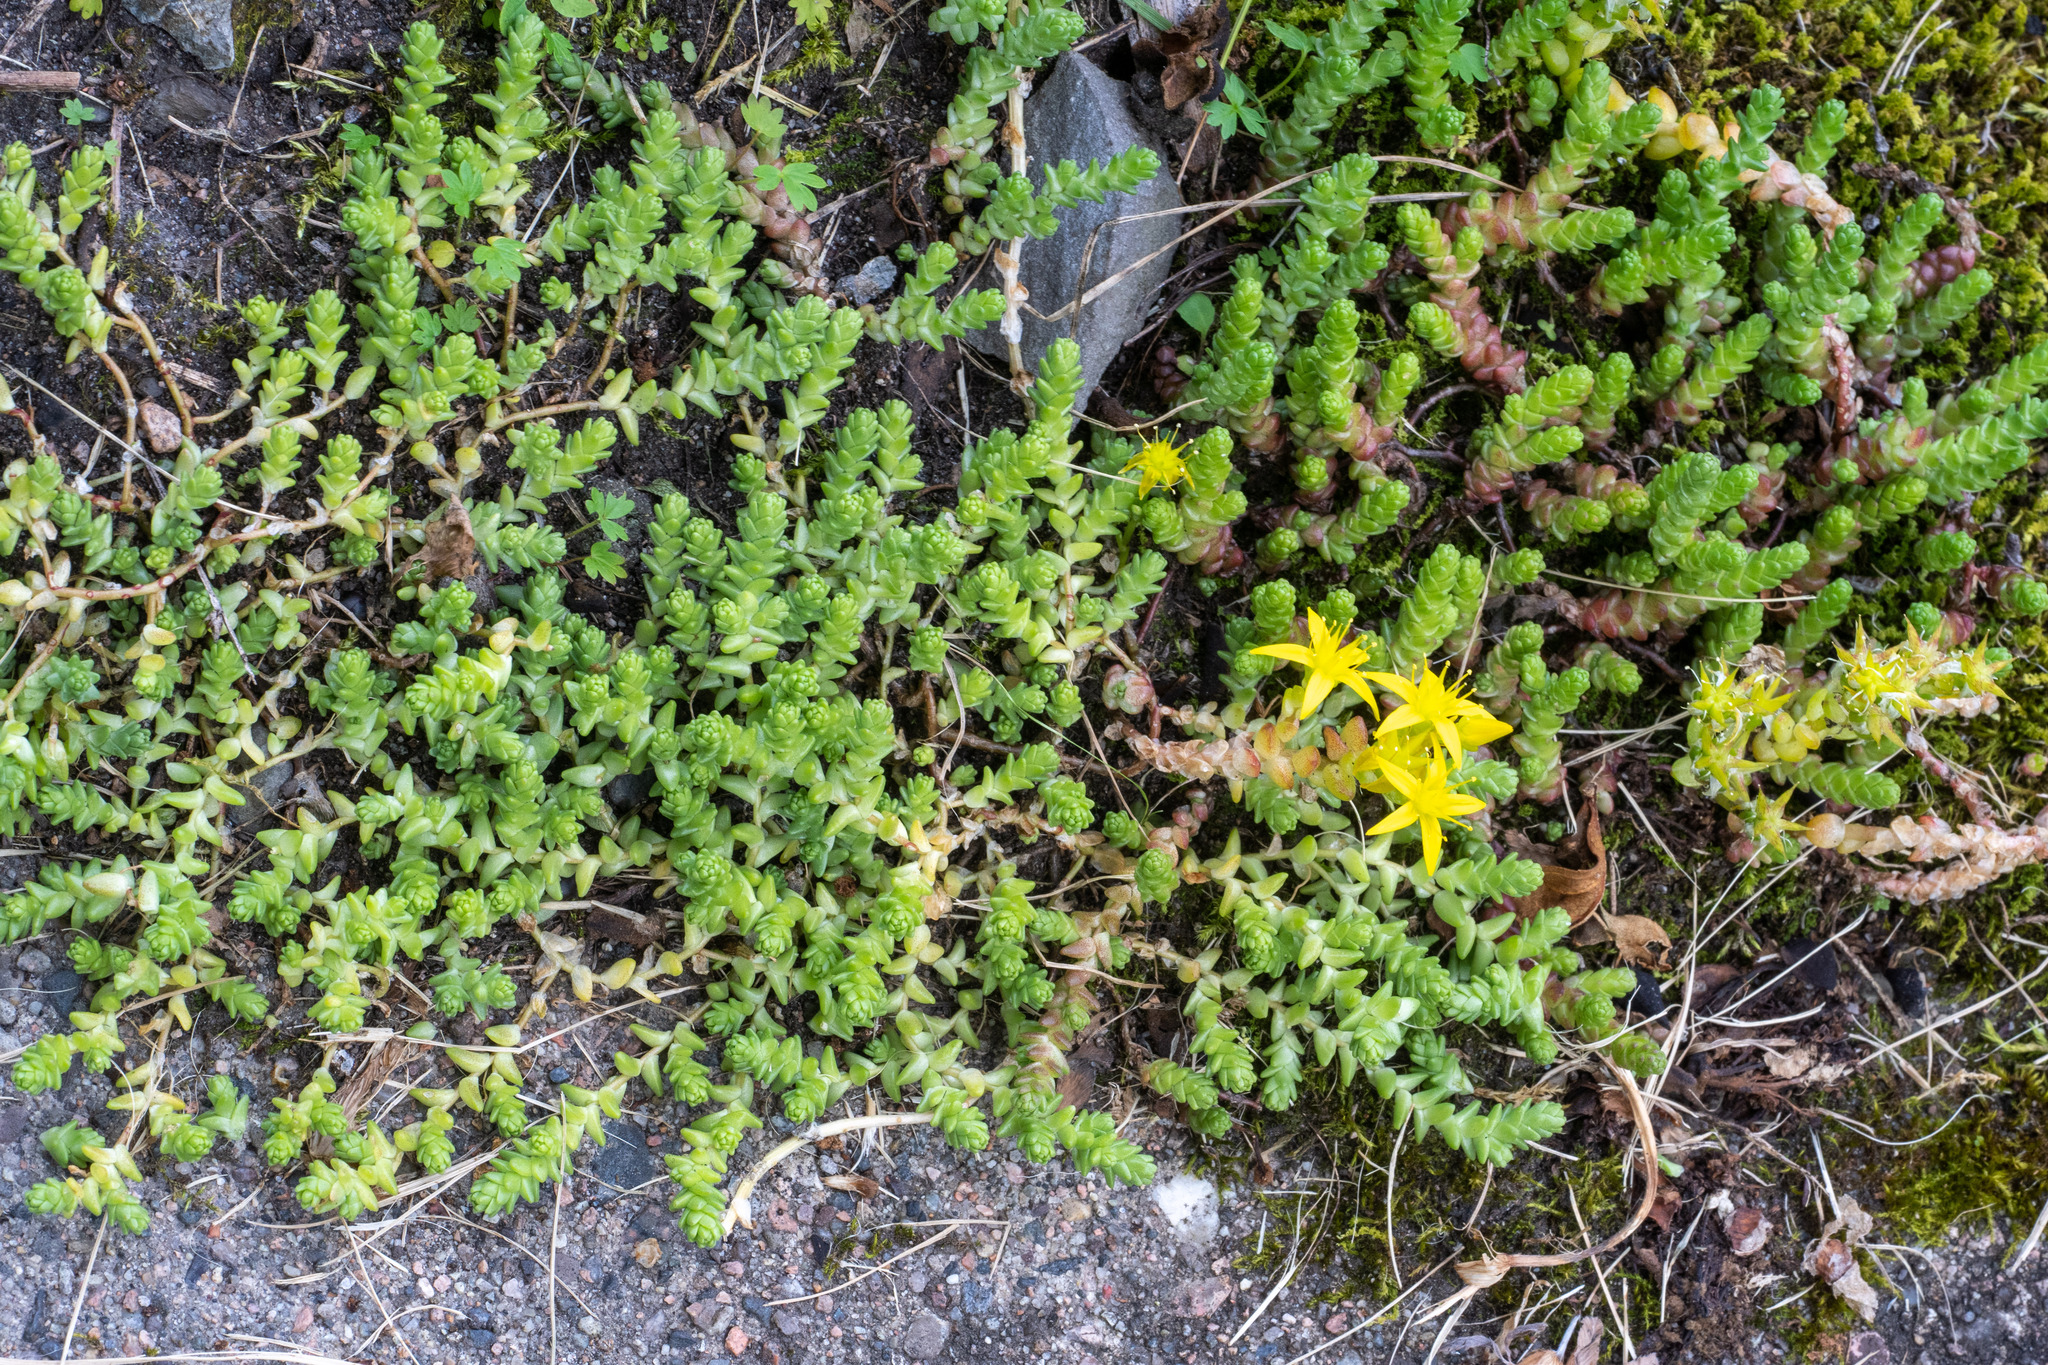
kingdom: Plantae
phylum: Tracheophyta
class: Magnoliopsida
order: Saxifragales
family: Crassulaceae
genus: Sedum
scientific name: Sedum acre
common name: Biting stonecrop
